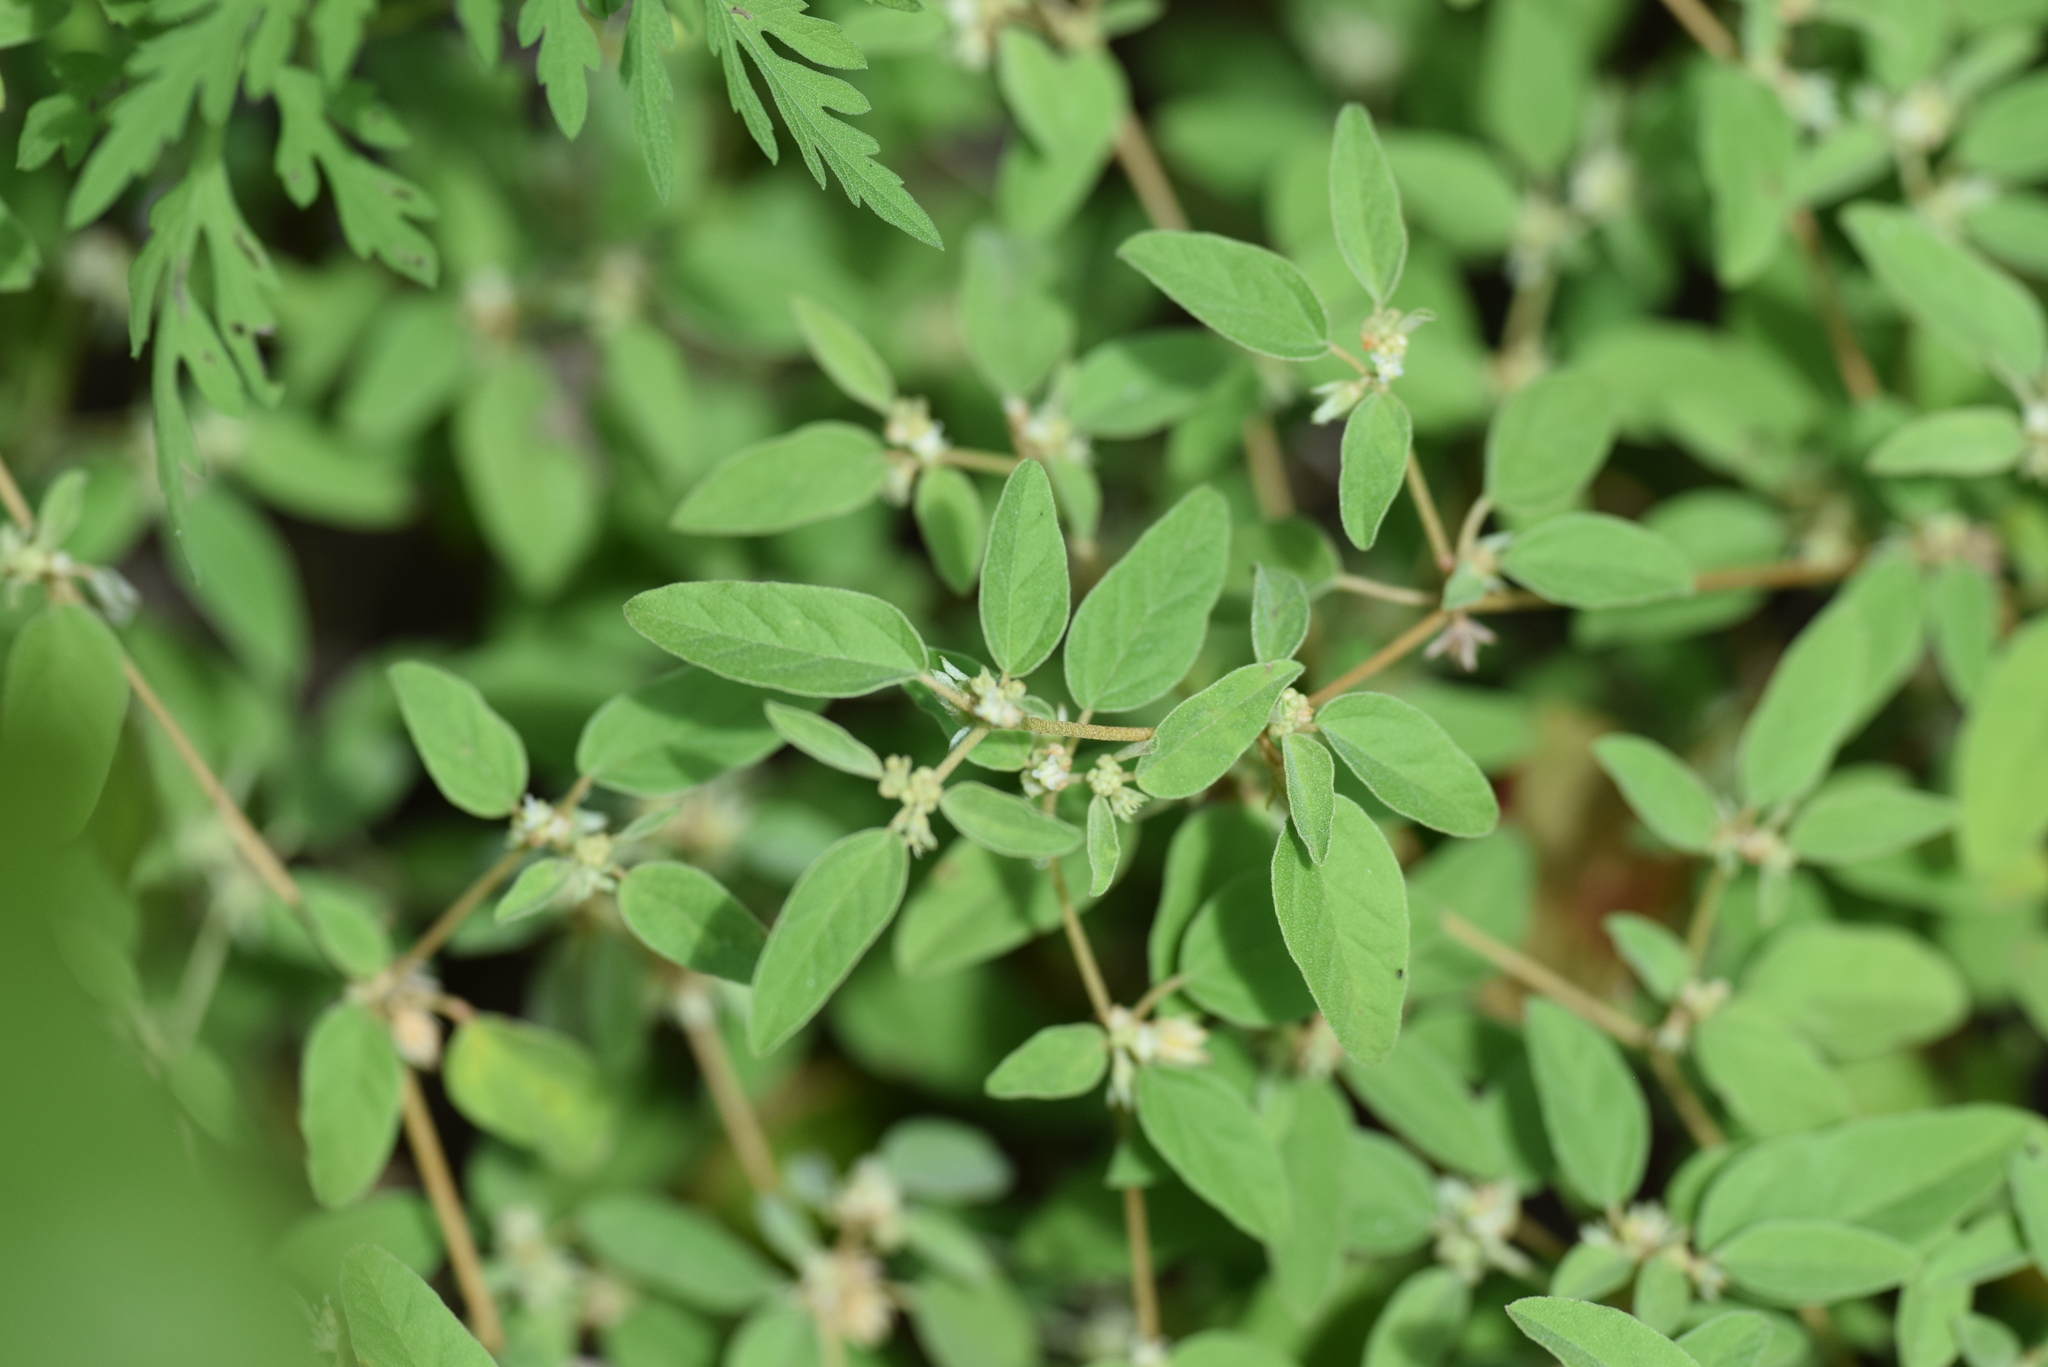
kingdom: Plantae
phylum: Tracheophyta
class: Magnoliopsida
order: Malpighiales
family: Euphorbiaceae
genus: Croton
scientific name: Croton monanthogynus
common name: One-seed croton
